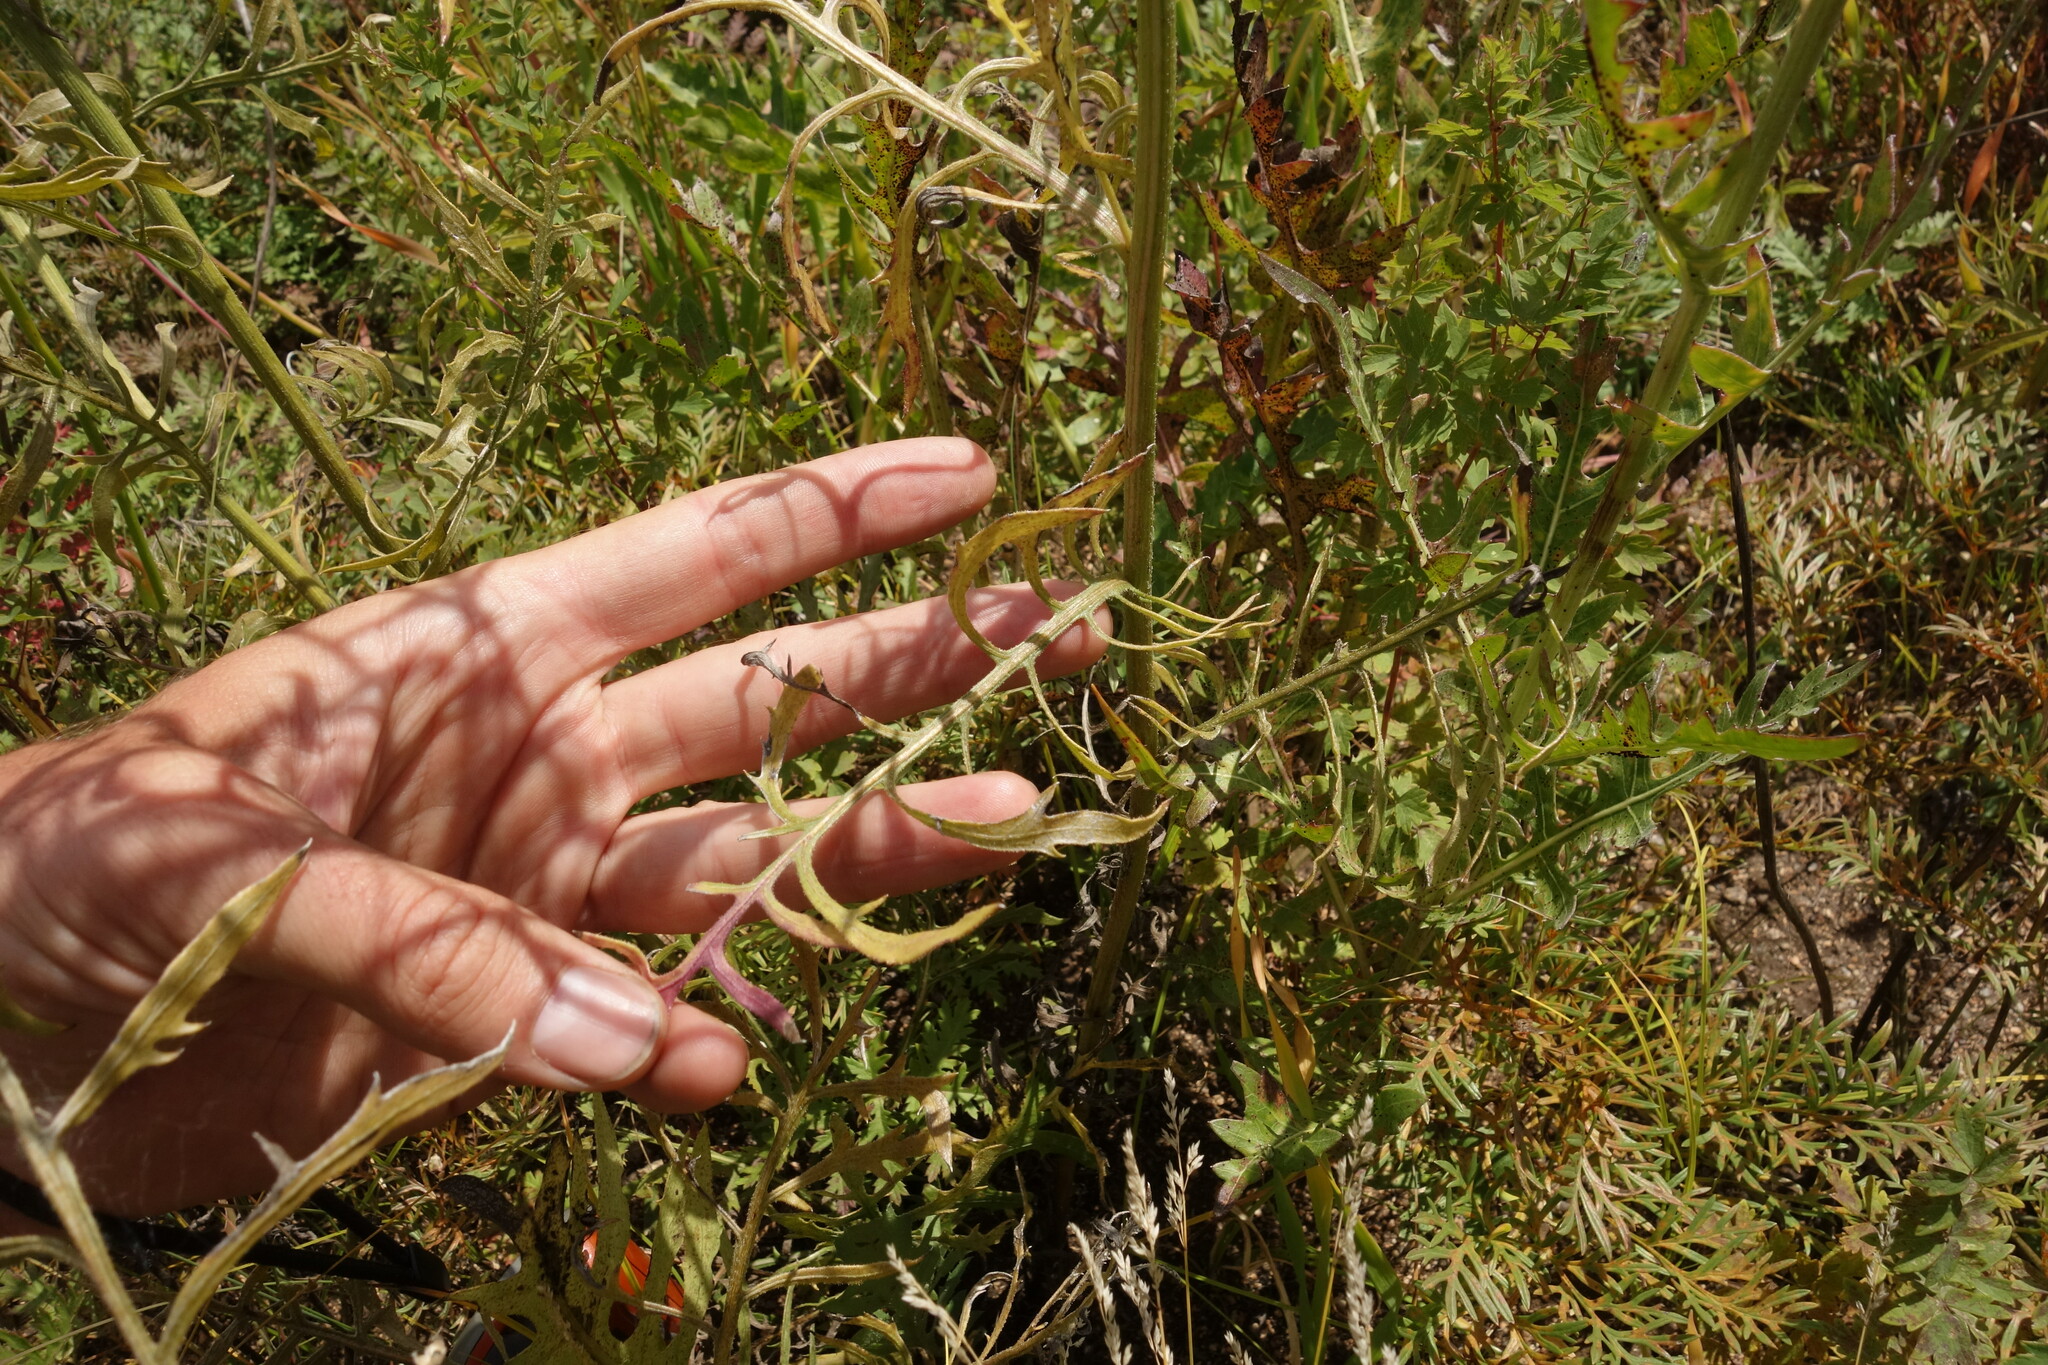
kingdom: Plantae
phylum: Tracheophyta
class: Magnoliopsida
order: Asterales
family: Asteraceae
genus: Klasea
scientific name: Klasea centauroides
